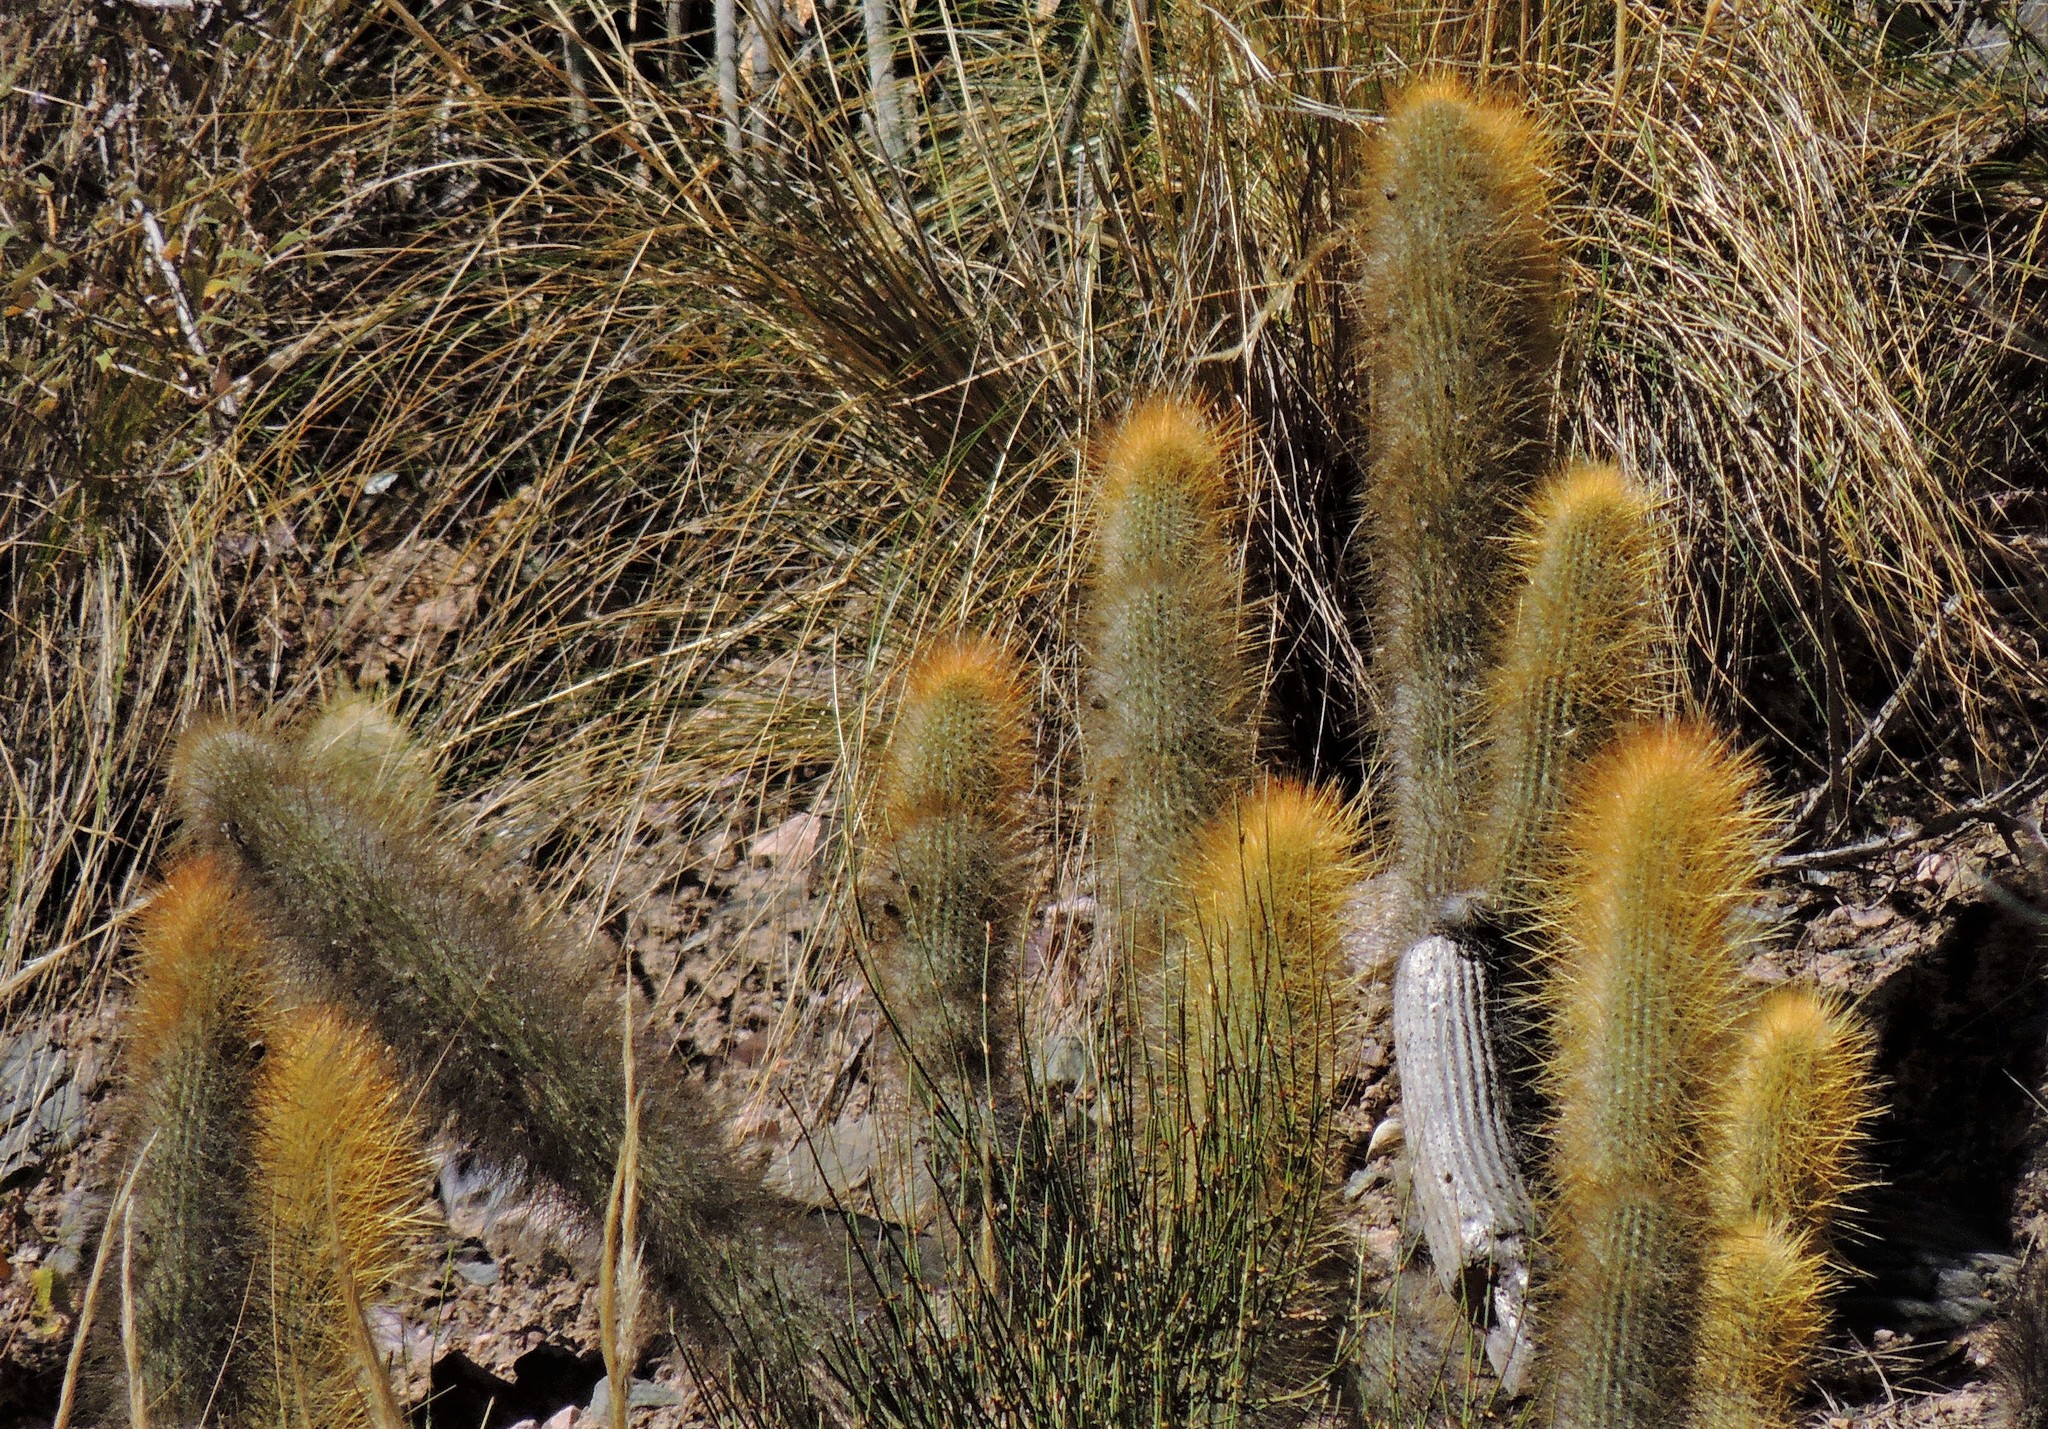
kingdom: Plantae
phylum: Tracheophyta
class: Magnoliopsida
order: Caryophyllales
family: Cactaceae
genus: Cleistocactus
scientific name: Cleistocactus hyalacanthus
